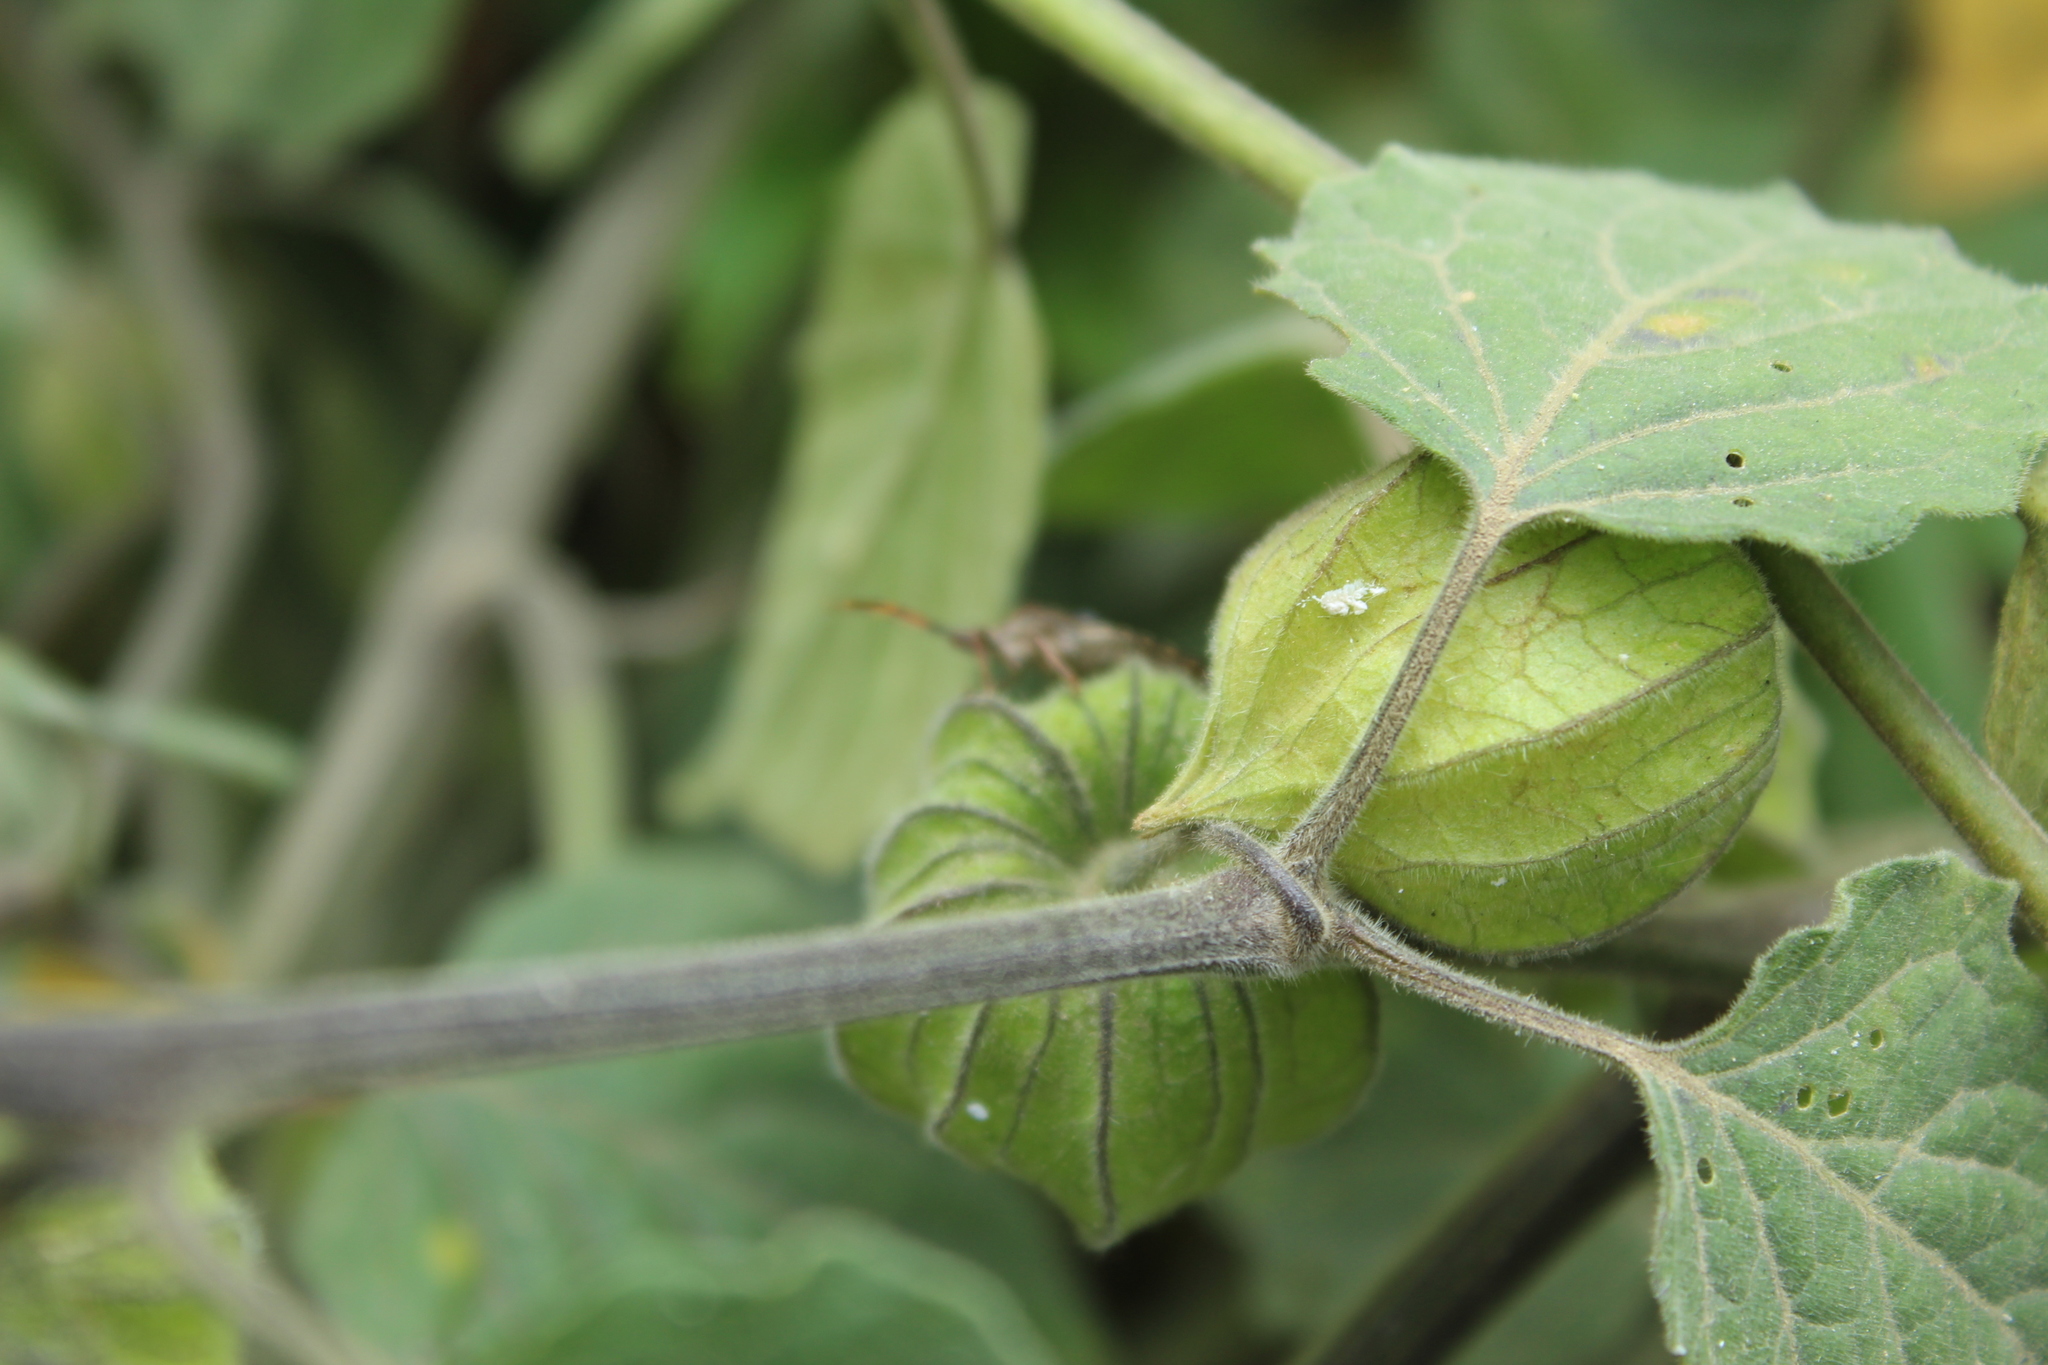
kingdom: Animalia
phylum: Arthropoda
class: Insecta
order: Hemiptera
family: Coreidae
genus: Leptoglossus
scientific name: Leptoglossus zonatus
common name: Large-legged bug
